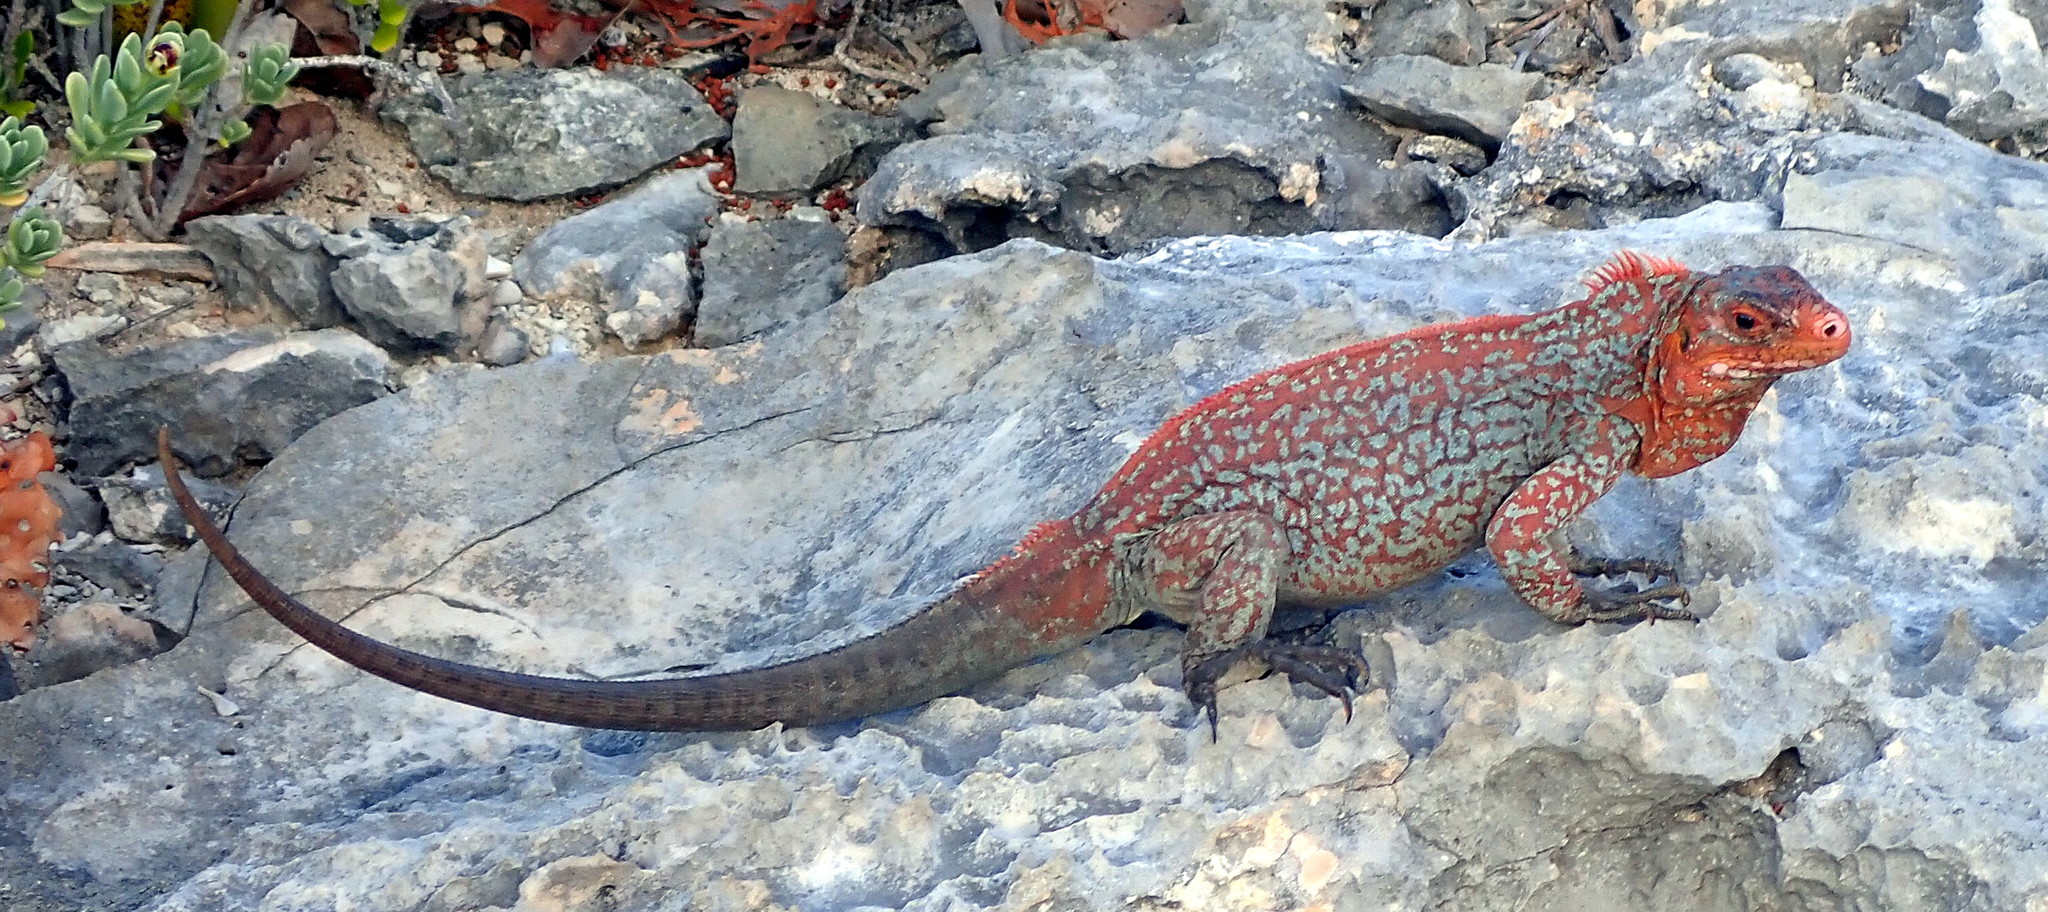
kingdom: Animalia
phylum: Chordata
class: Squamata
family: Iguanidae
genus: Cyclura
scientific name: Cyclura rileyi
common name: Acklin's ground iguana
